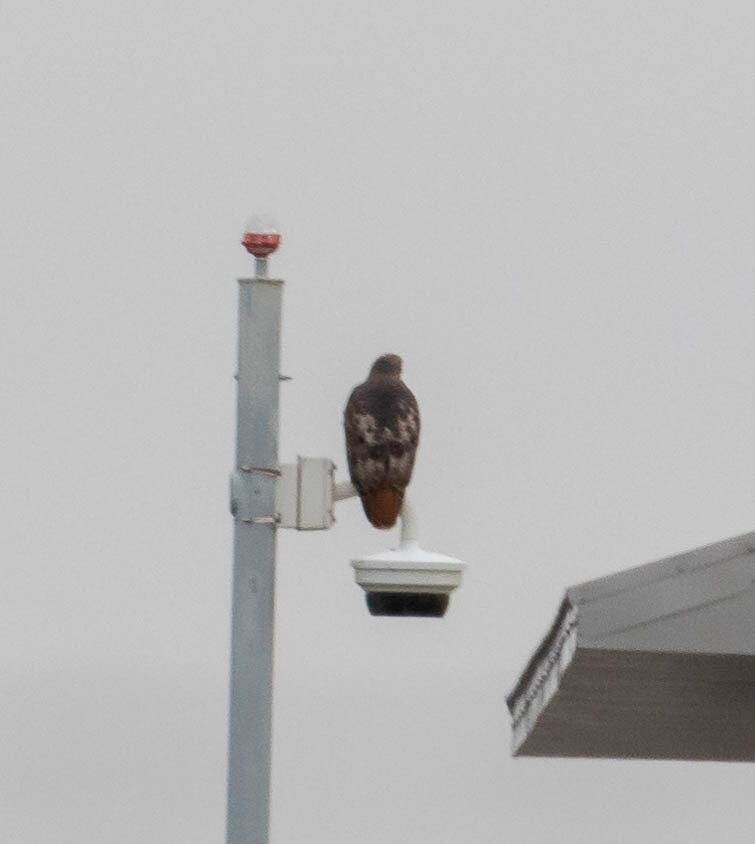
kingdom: Animalia
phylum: Chordata
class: Aves
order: Accipitriformes
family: Accipitridae
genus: Buteo
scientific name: Buteo jamaicensis
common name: Red-tailed hawk
